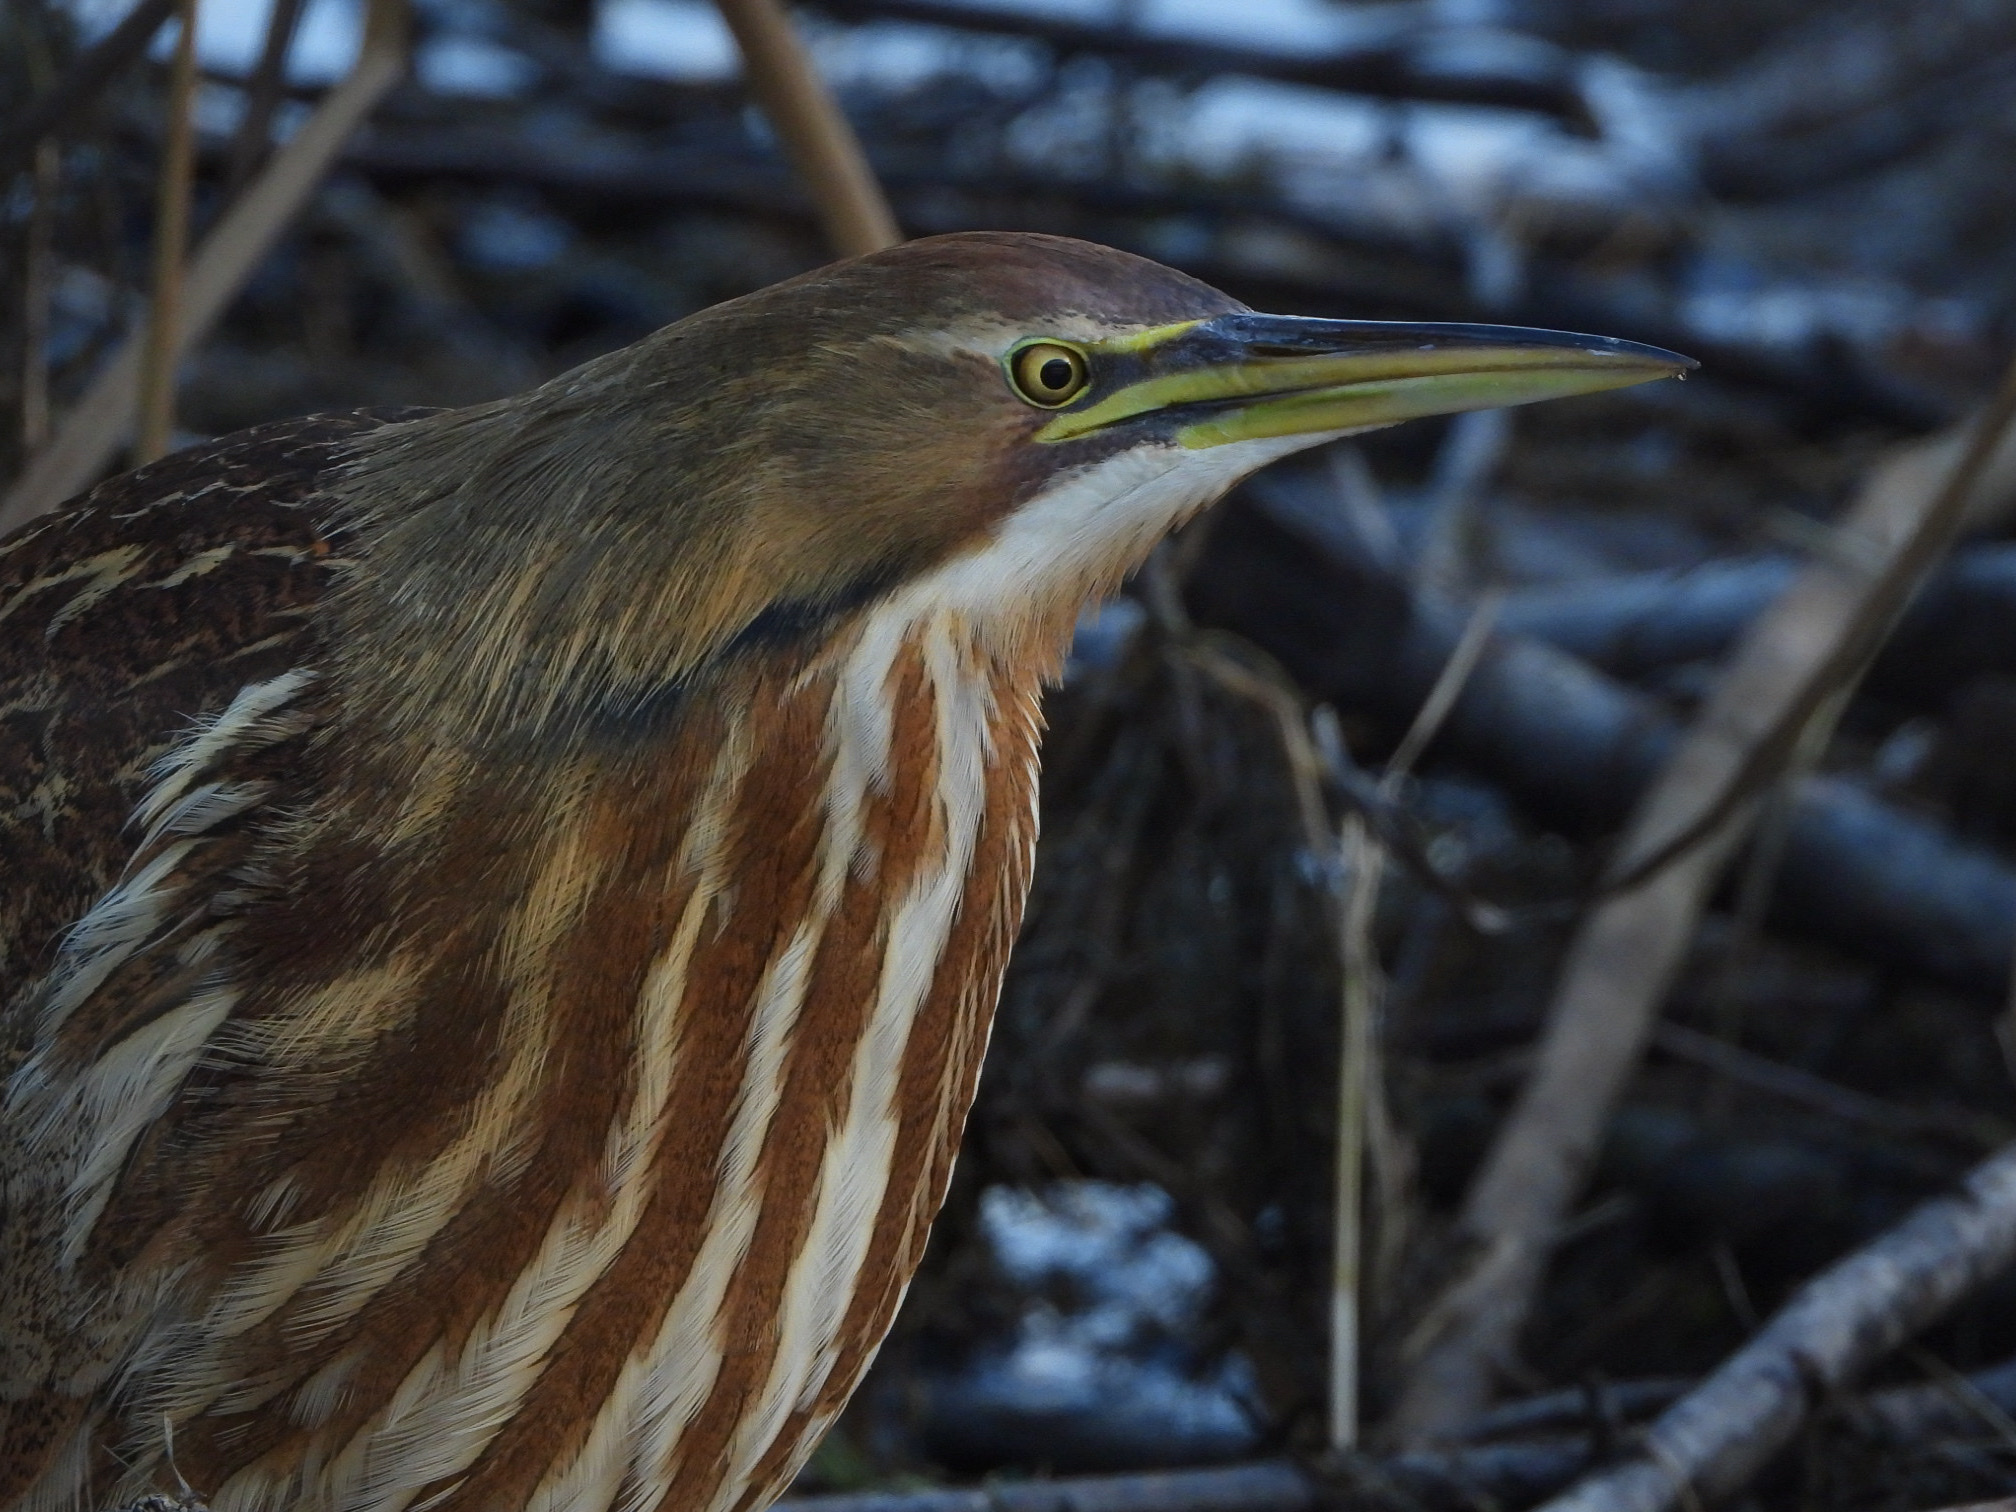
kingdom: Animalia
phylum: Chordata
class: Aves
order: Pelecaniformes
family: Ardeidae
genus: Botaurus
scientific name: Botaurus lentiginosus
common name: American bittern
